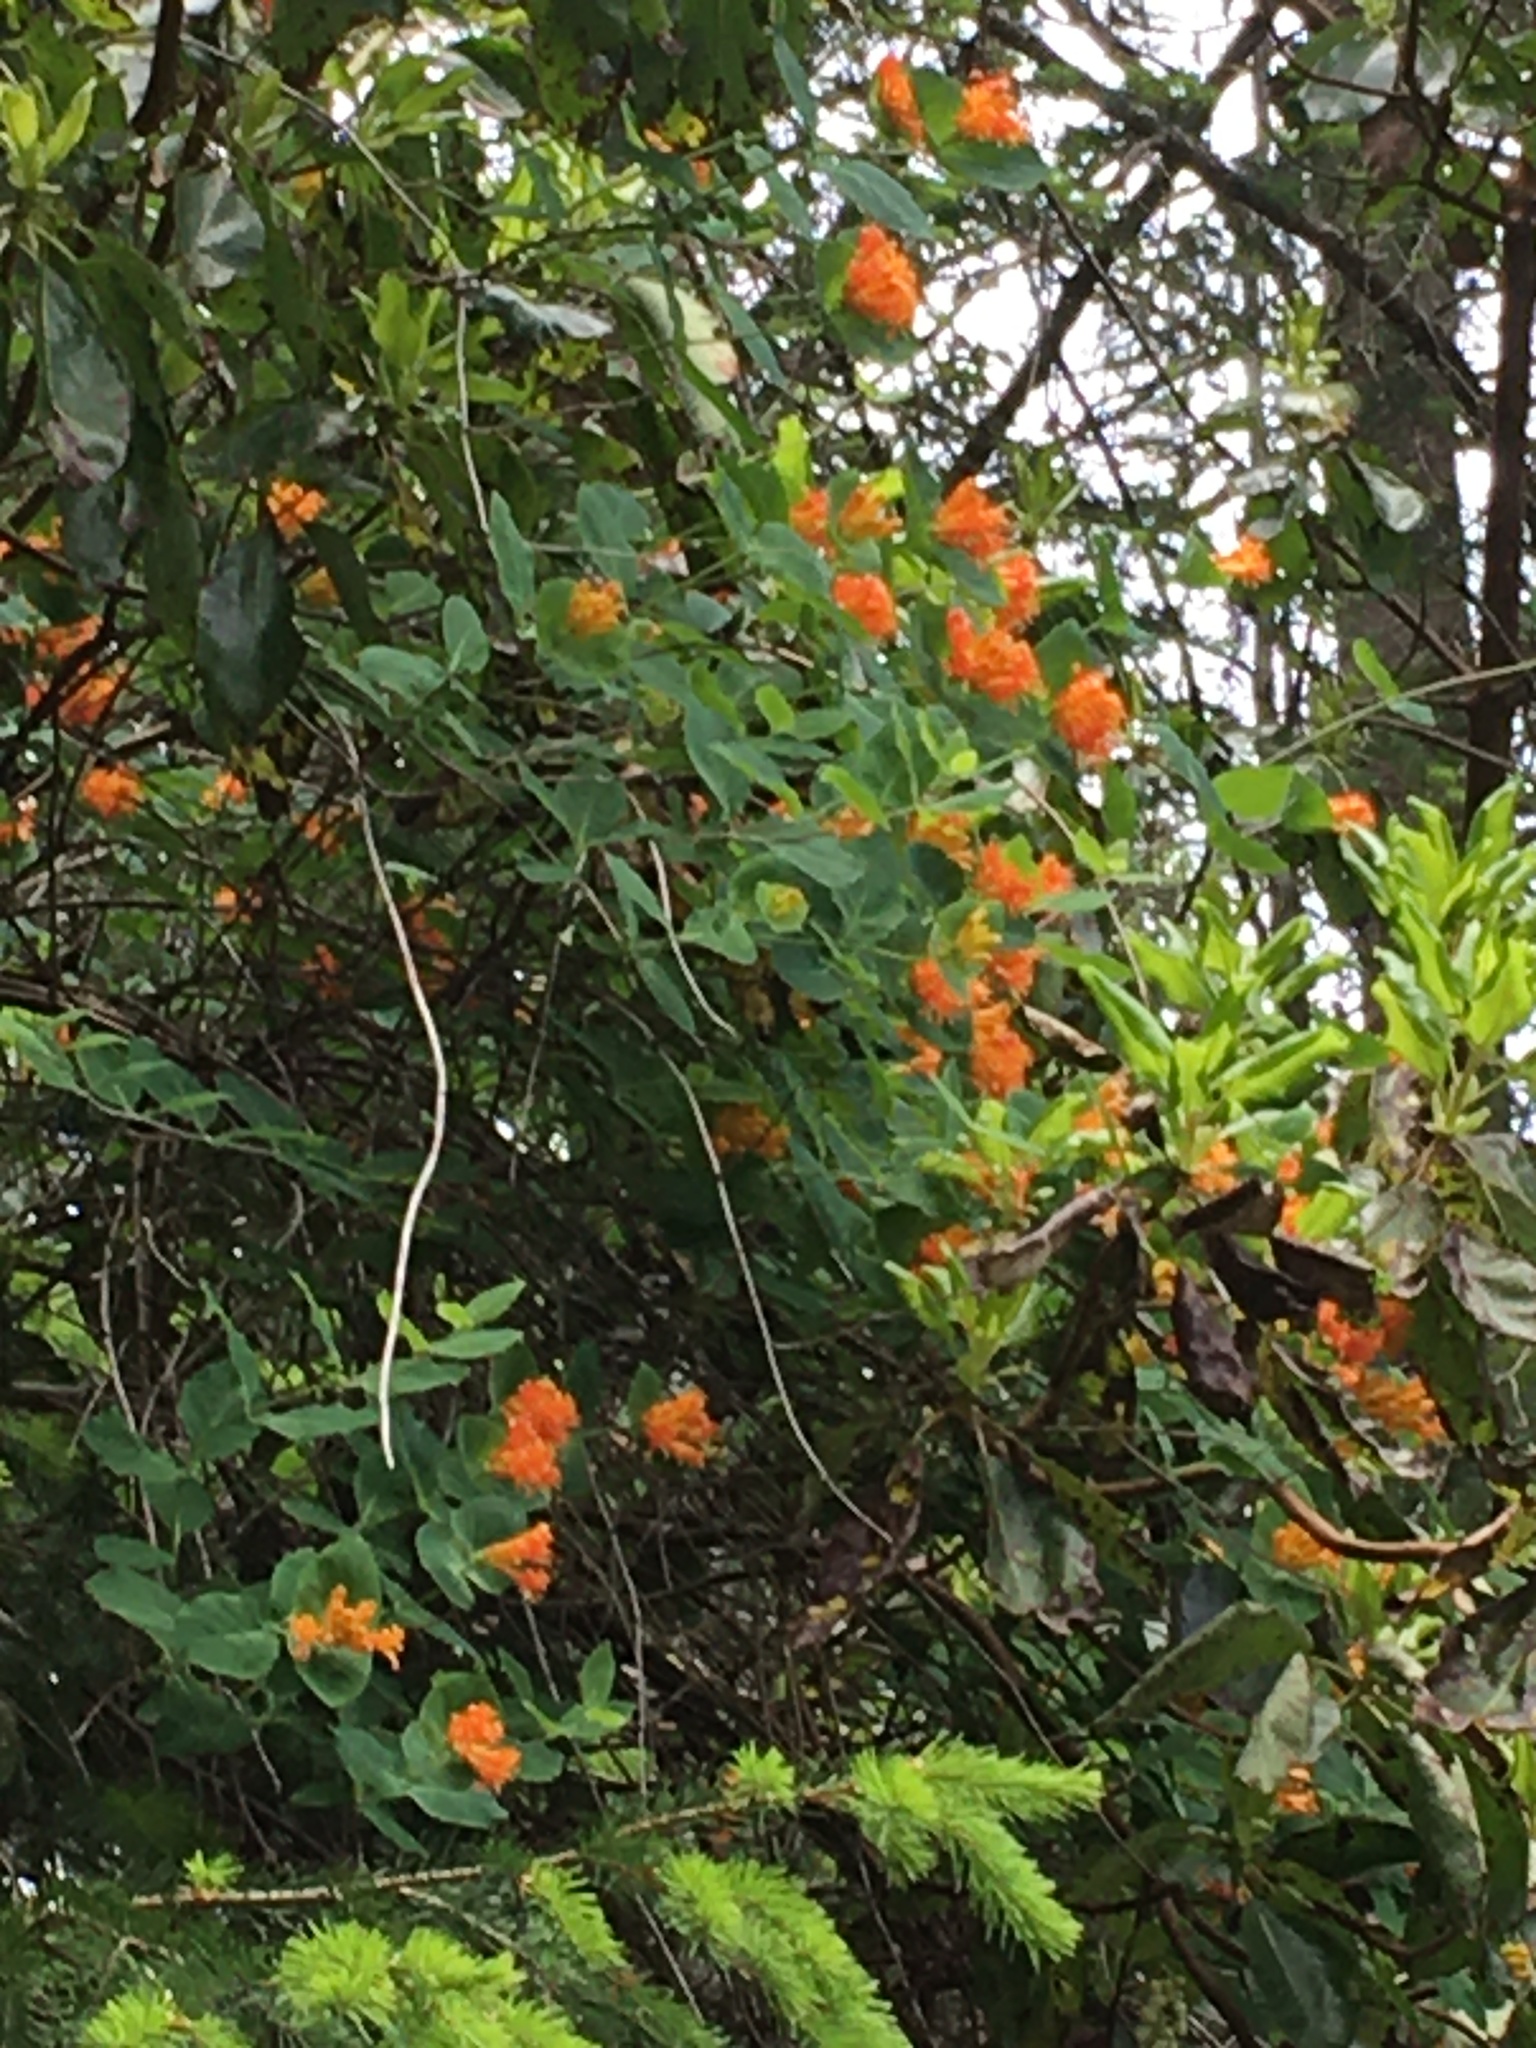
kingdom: Plantae
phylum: Tracheophyta
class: Magnoliopsida
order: Dipsacales
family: Caprifoliaceae
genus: Lonicera
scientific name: Lonicera ciliosa
